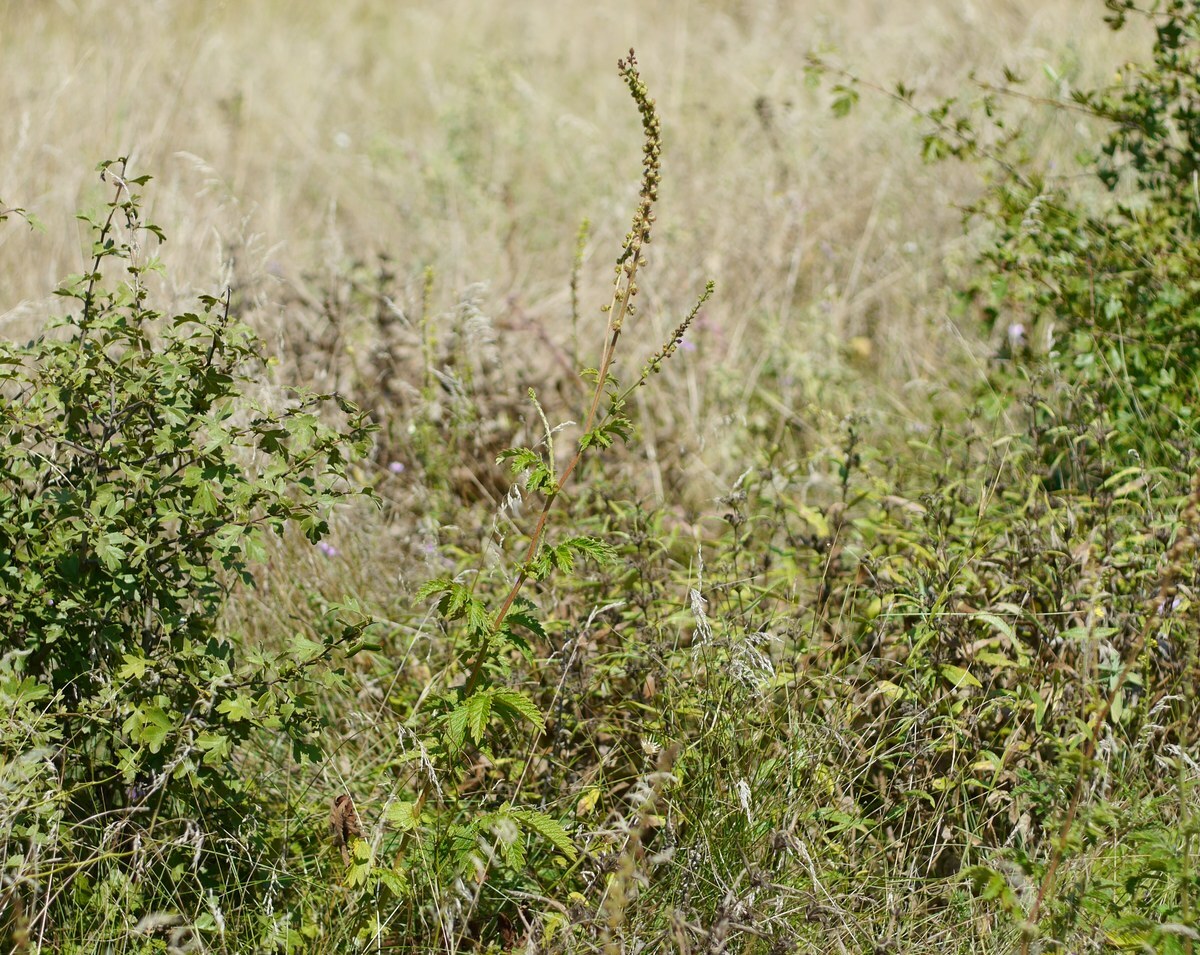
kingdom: Plantae
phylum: Tracheophyta
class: Magnoliopsida
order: Rosales
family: Rosaceae
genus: Agrimonia
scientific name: Agrimonia eupatoria
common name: Agrimony
